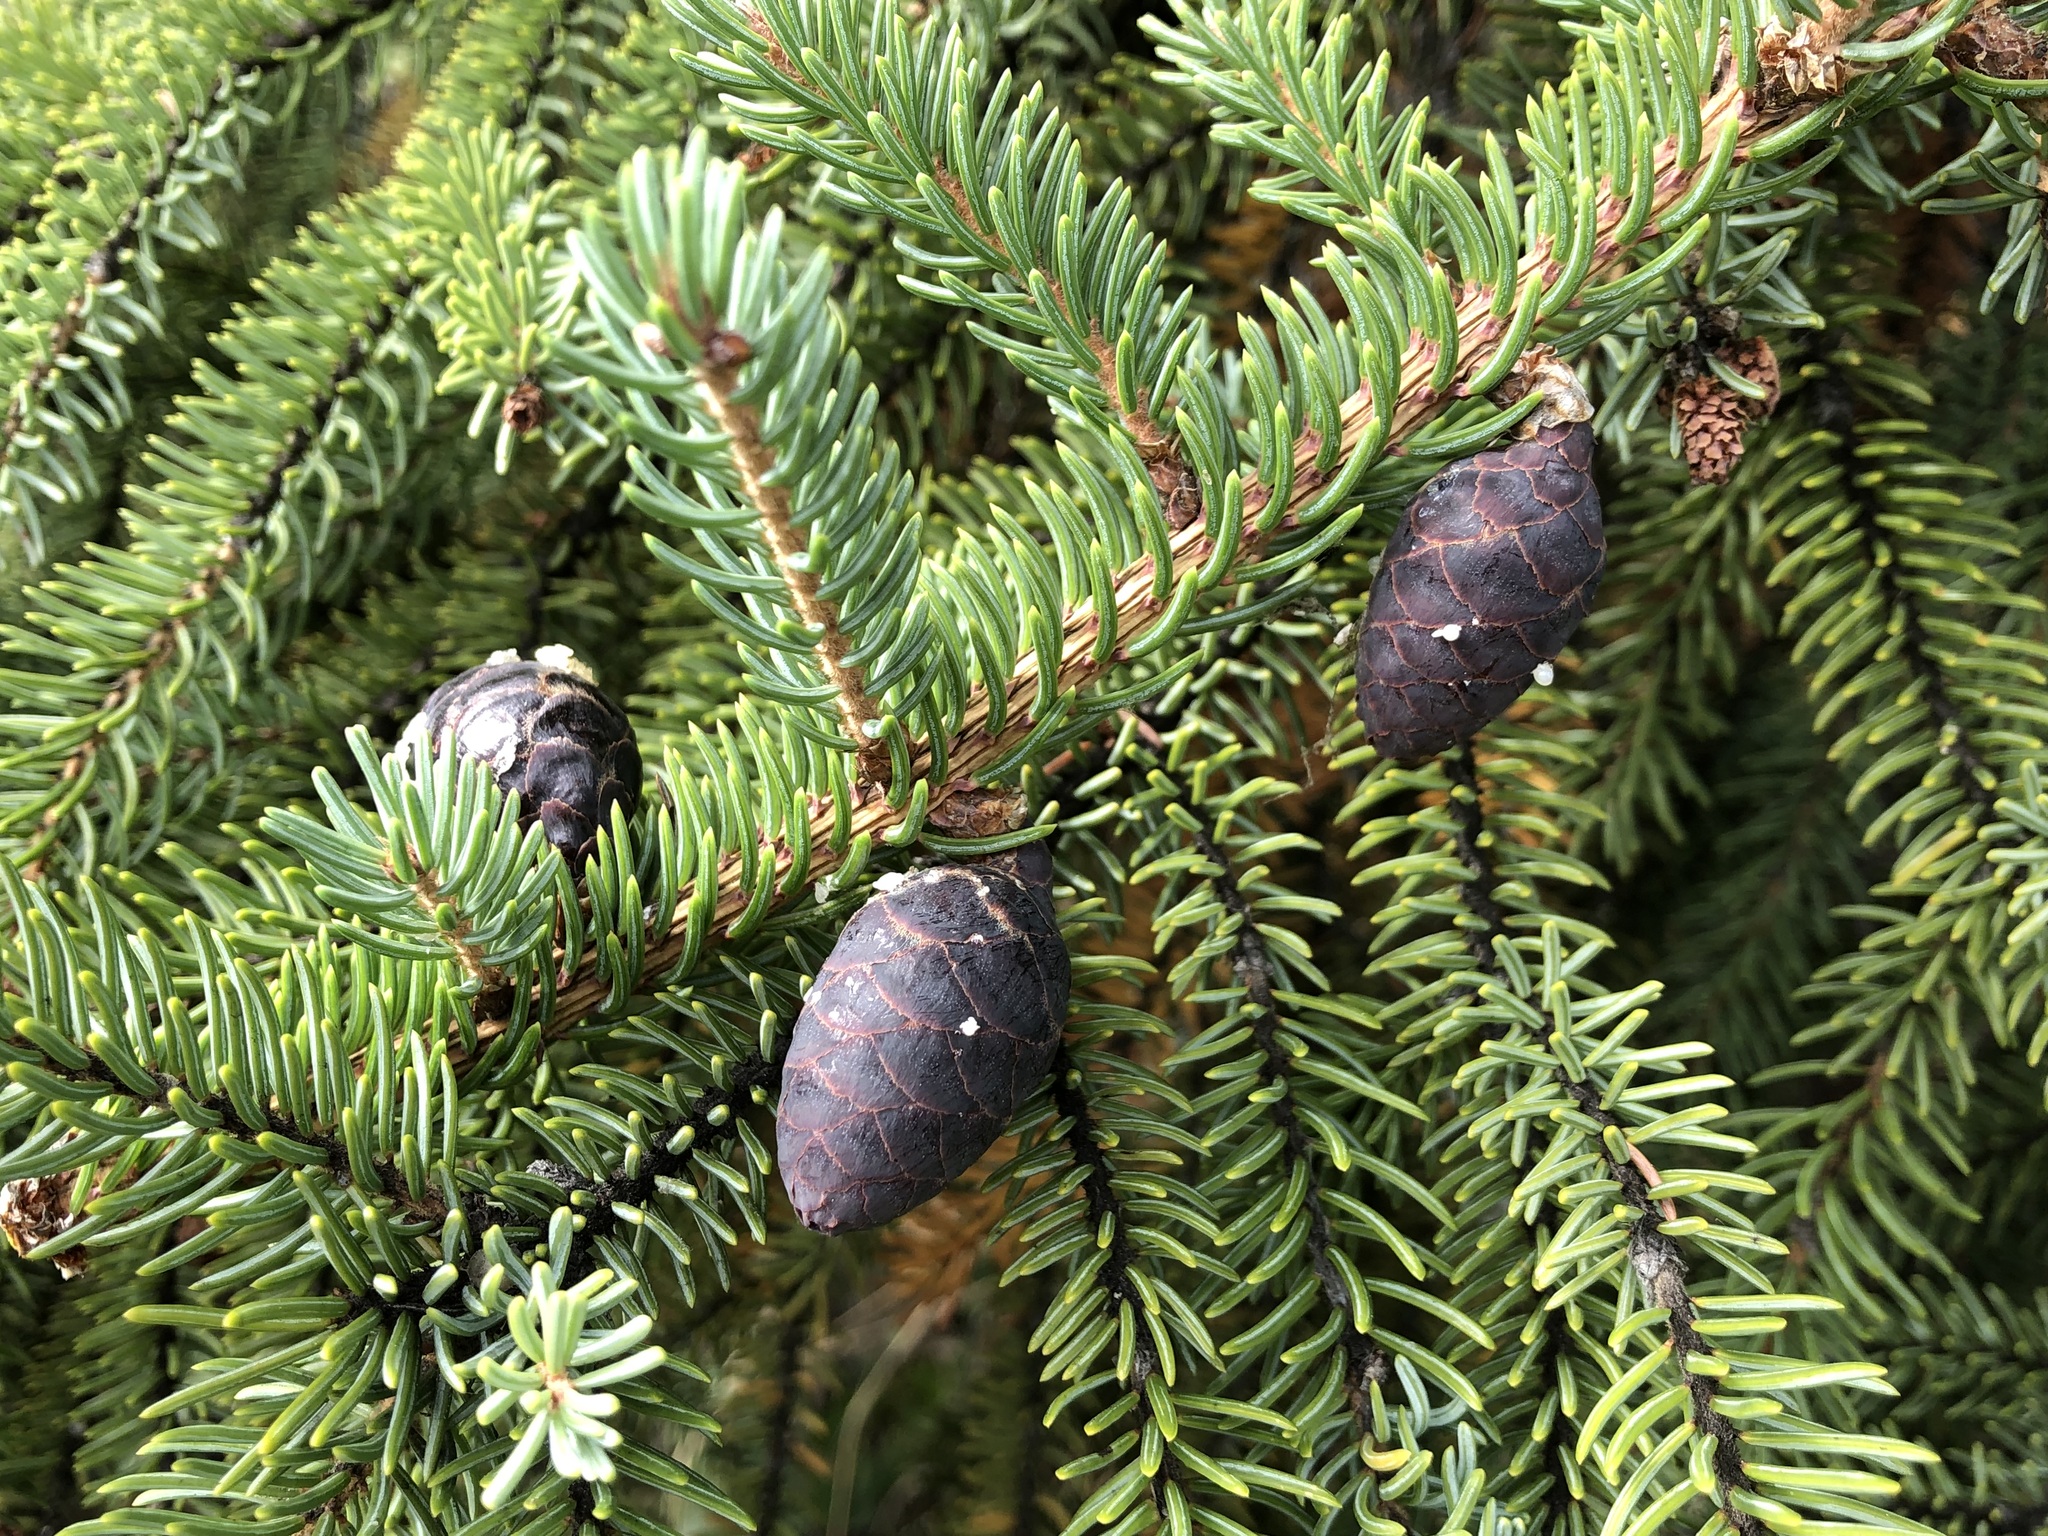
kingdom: Plantae
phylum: Tracheophyta
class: Pinopsida
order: Pinales
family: Pinaceae
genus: Picea
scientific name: Picea mariana
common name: Black spruce
